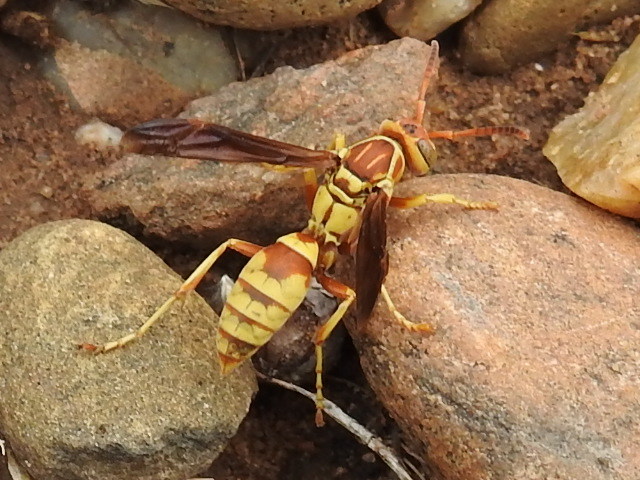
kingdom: Animalia
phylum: Arthropoda
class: Insecta
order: Hymenoptera
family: Eumenidae
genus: Polistes
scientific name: Polistes dorsalis
